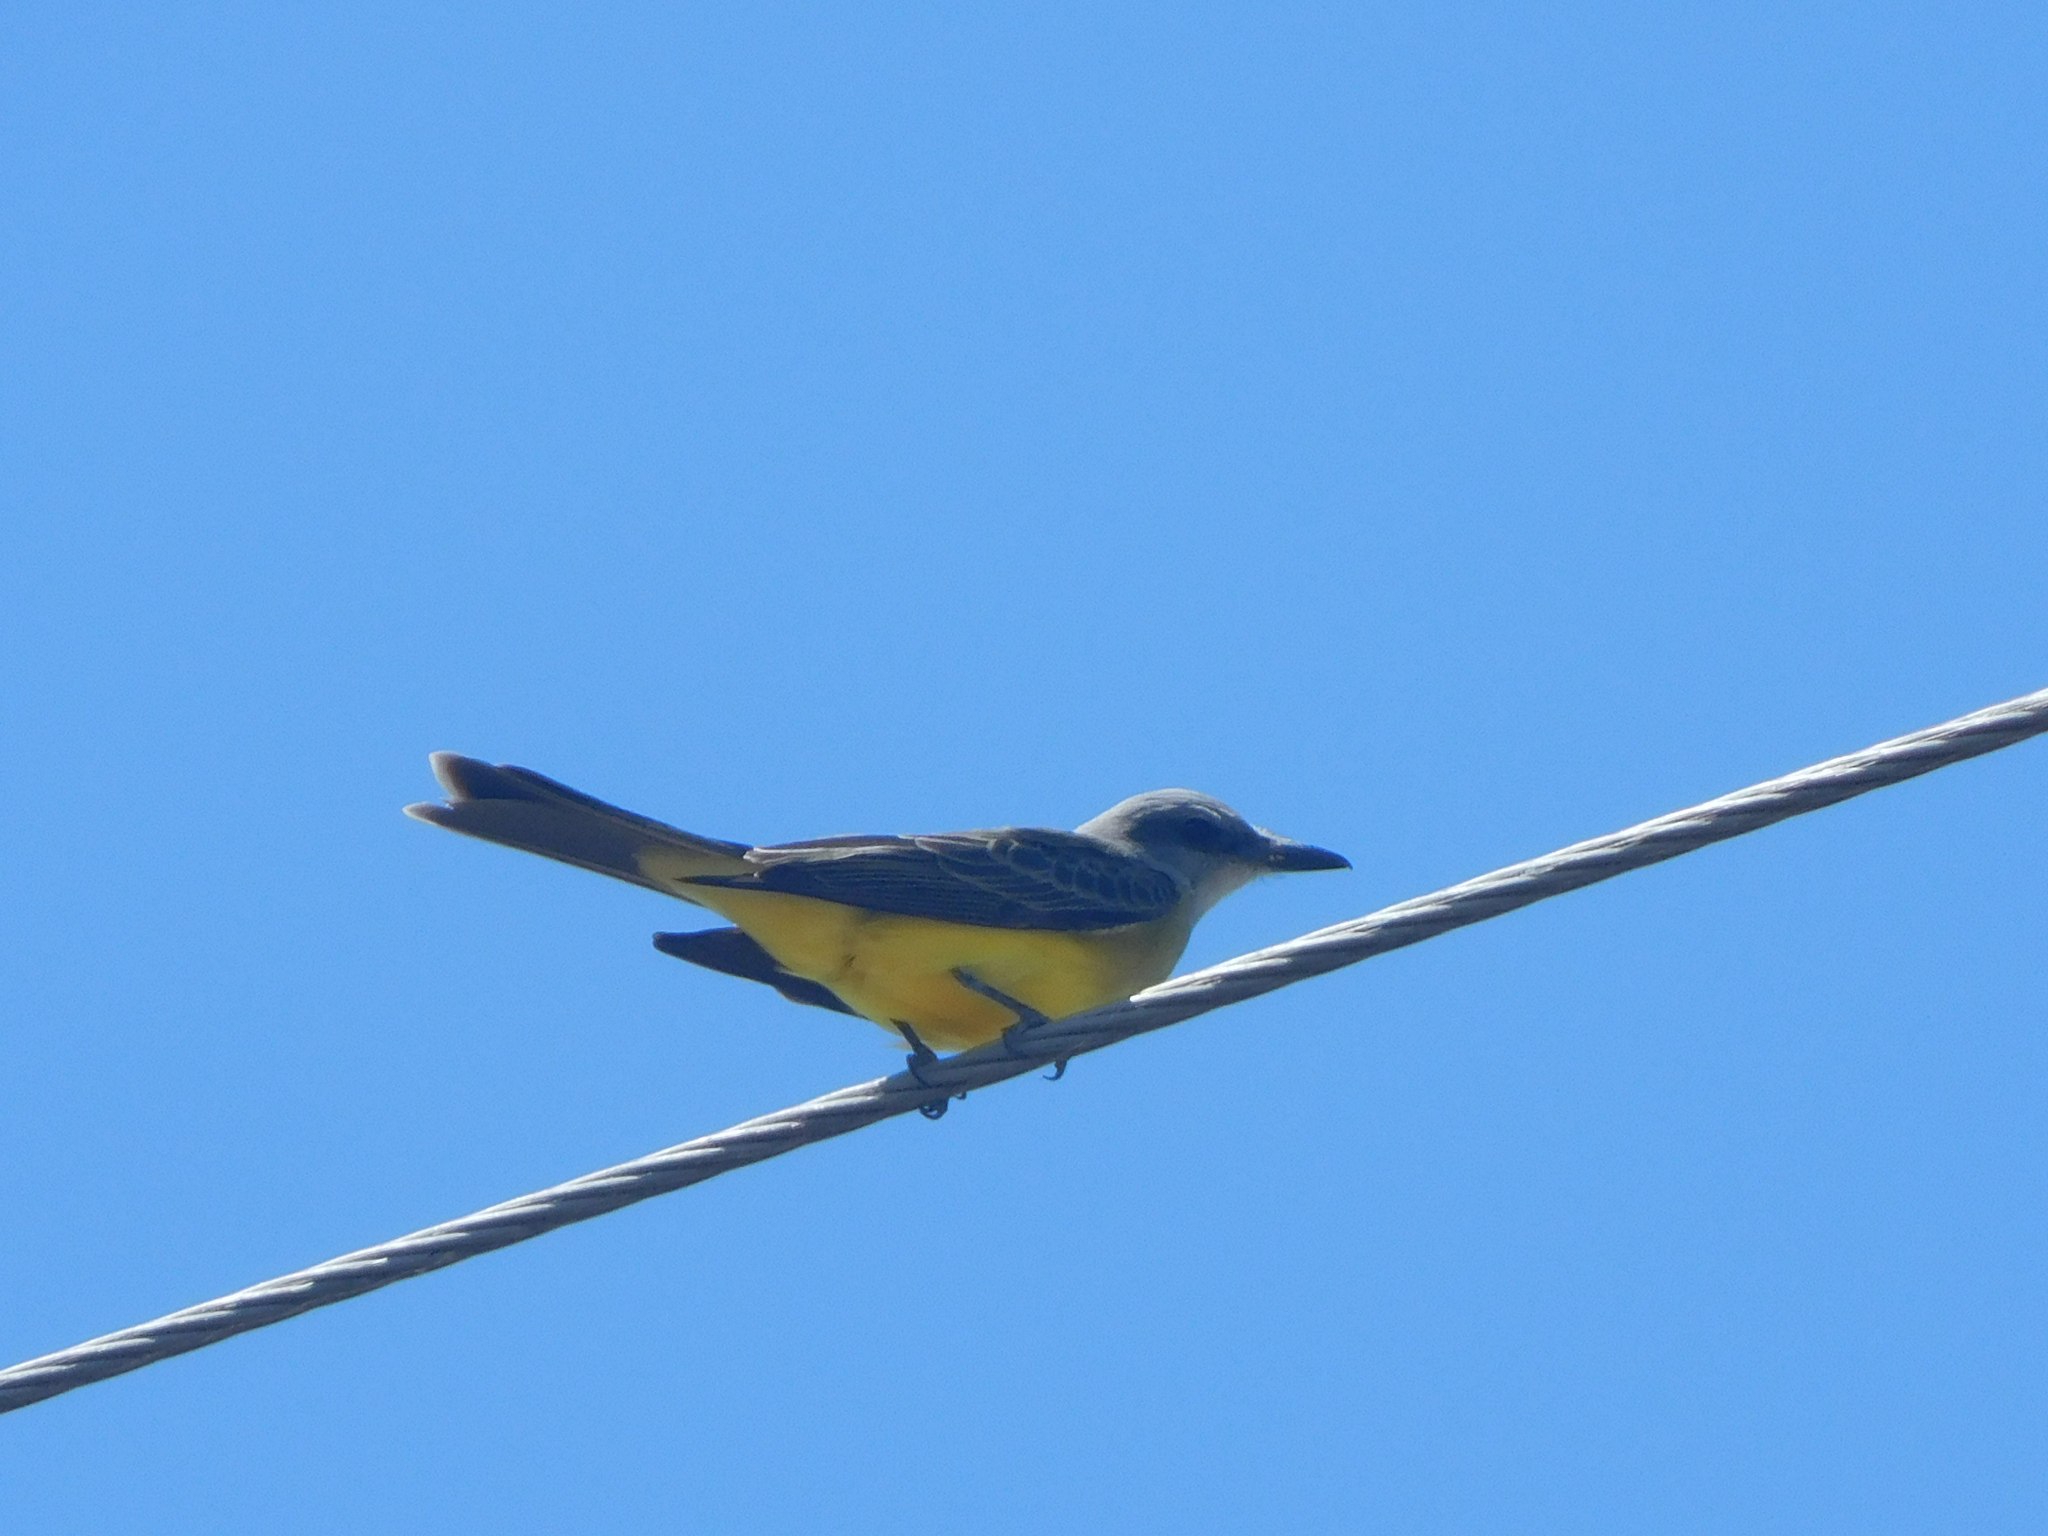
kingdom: Animalia
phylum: Chordata
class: Aves
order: Passeriformes
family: Tyrannidae
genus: Tyrannus
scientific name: Tyrannus melancholicus
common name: Tropical kingbird
